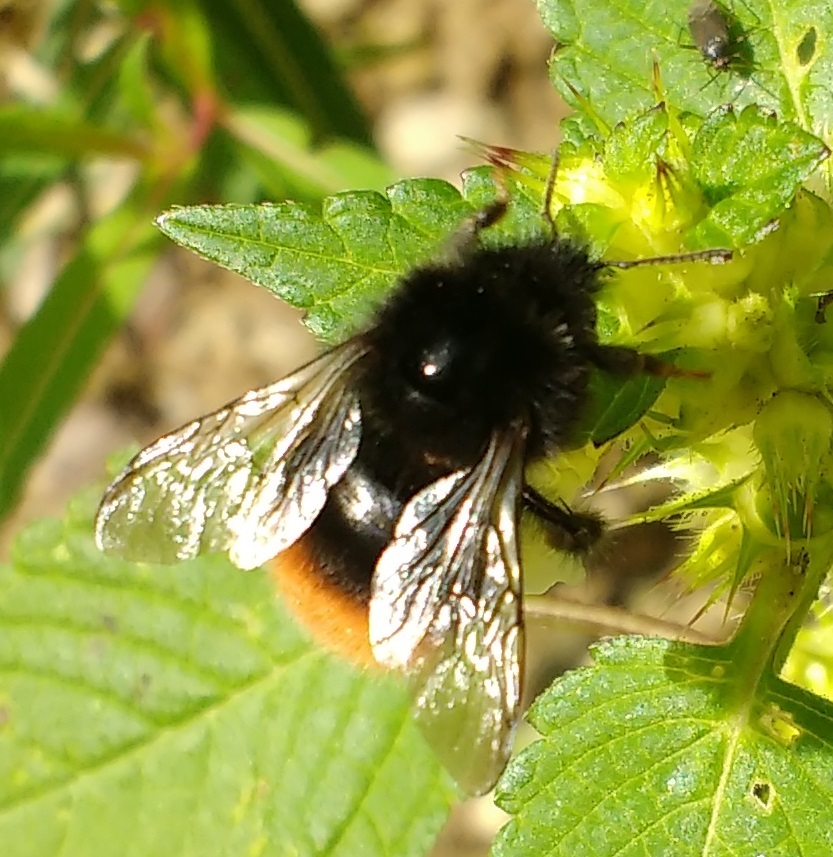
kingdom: Animalia
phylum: Arthropoda
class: Insecta
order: Hymenoptera
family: Apidae
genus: Bombus
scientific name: Bombus wurflenii
